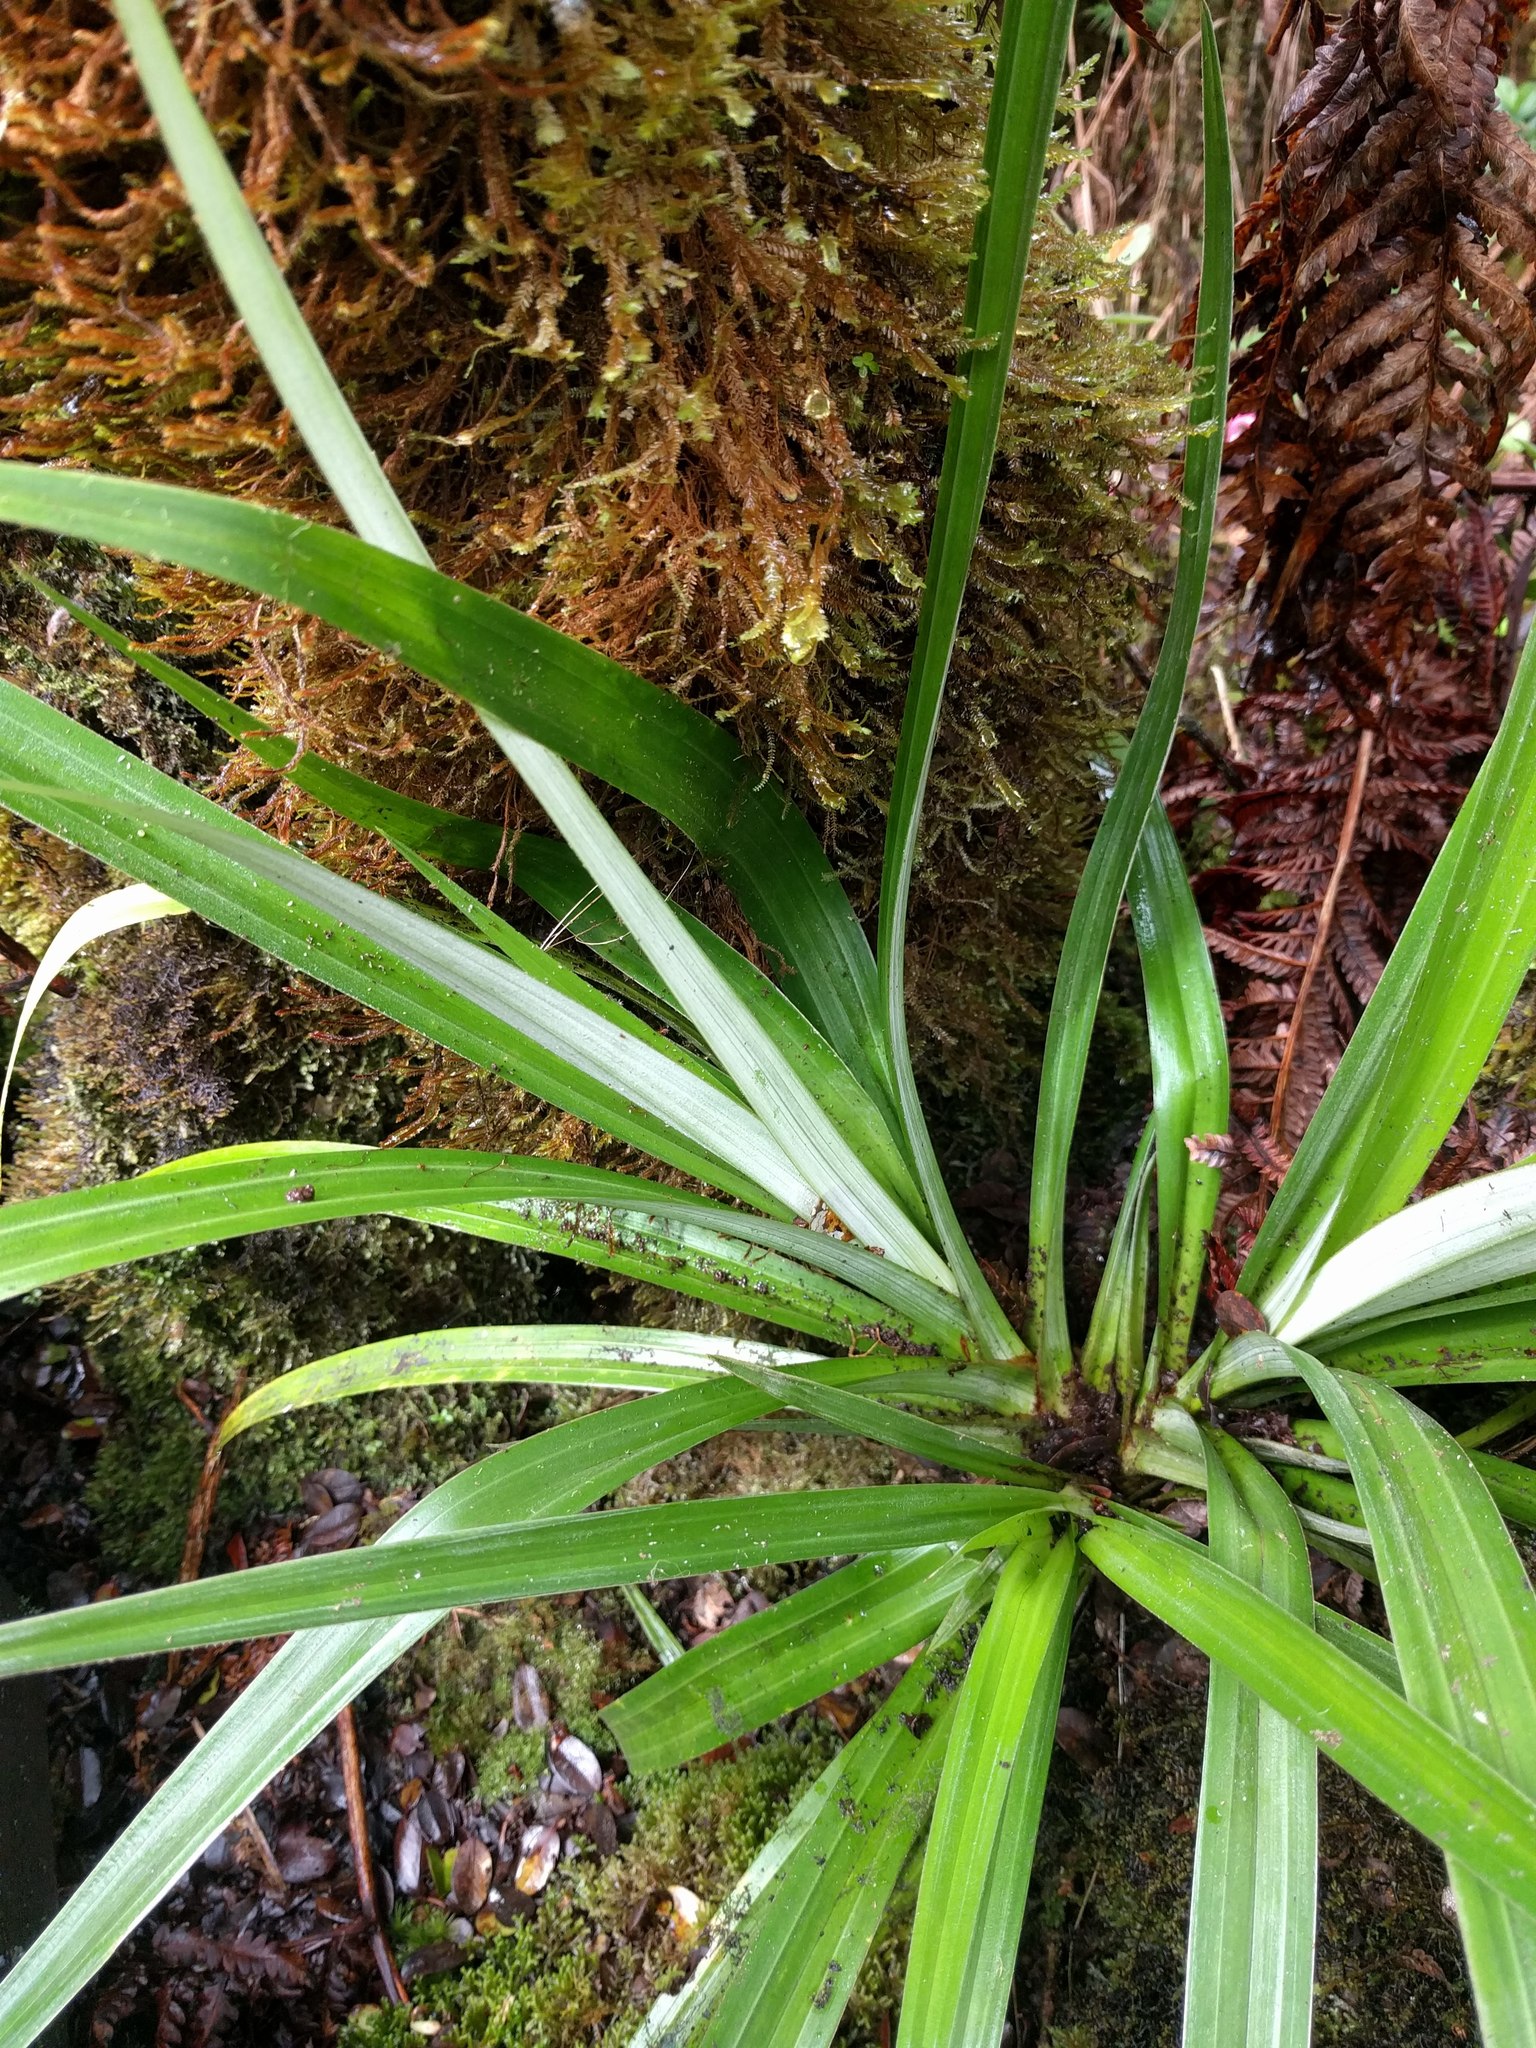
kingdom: Plantae
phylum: Tracheophyta
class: Liliopsida
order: Asparagales
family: Asteliaceae
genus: Astelia
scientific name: Astelia menziesiana
